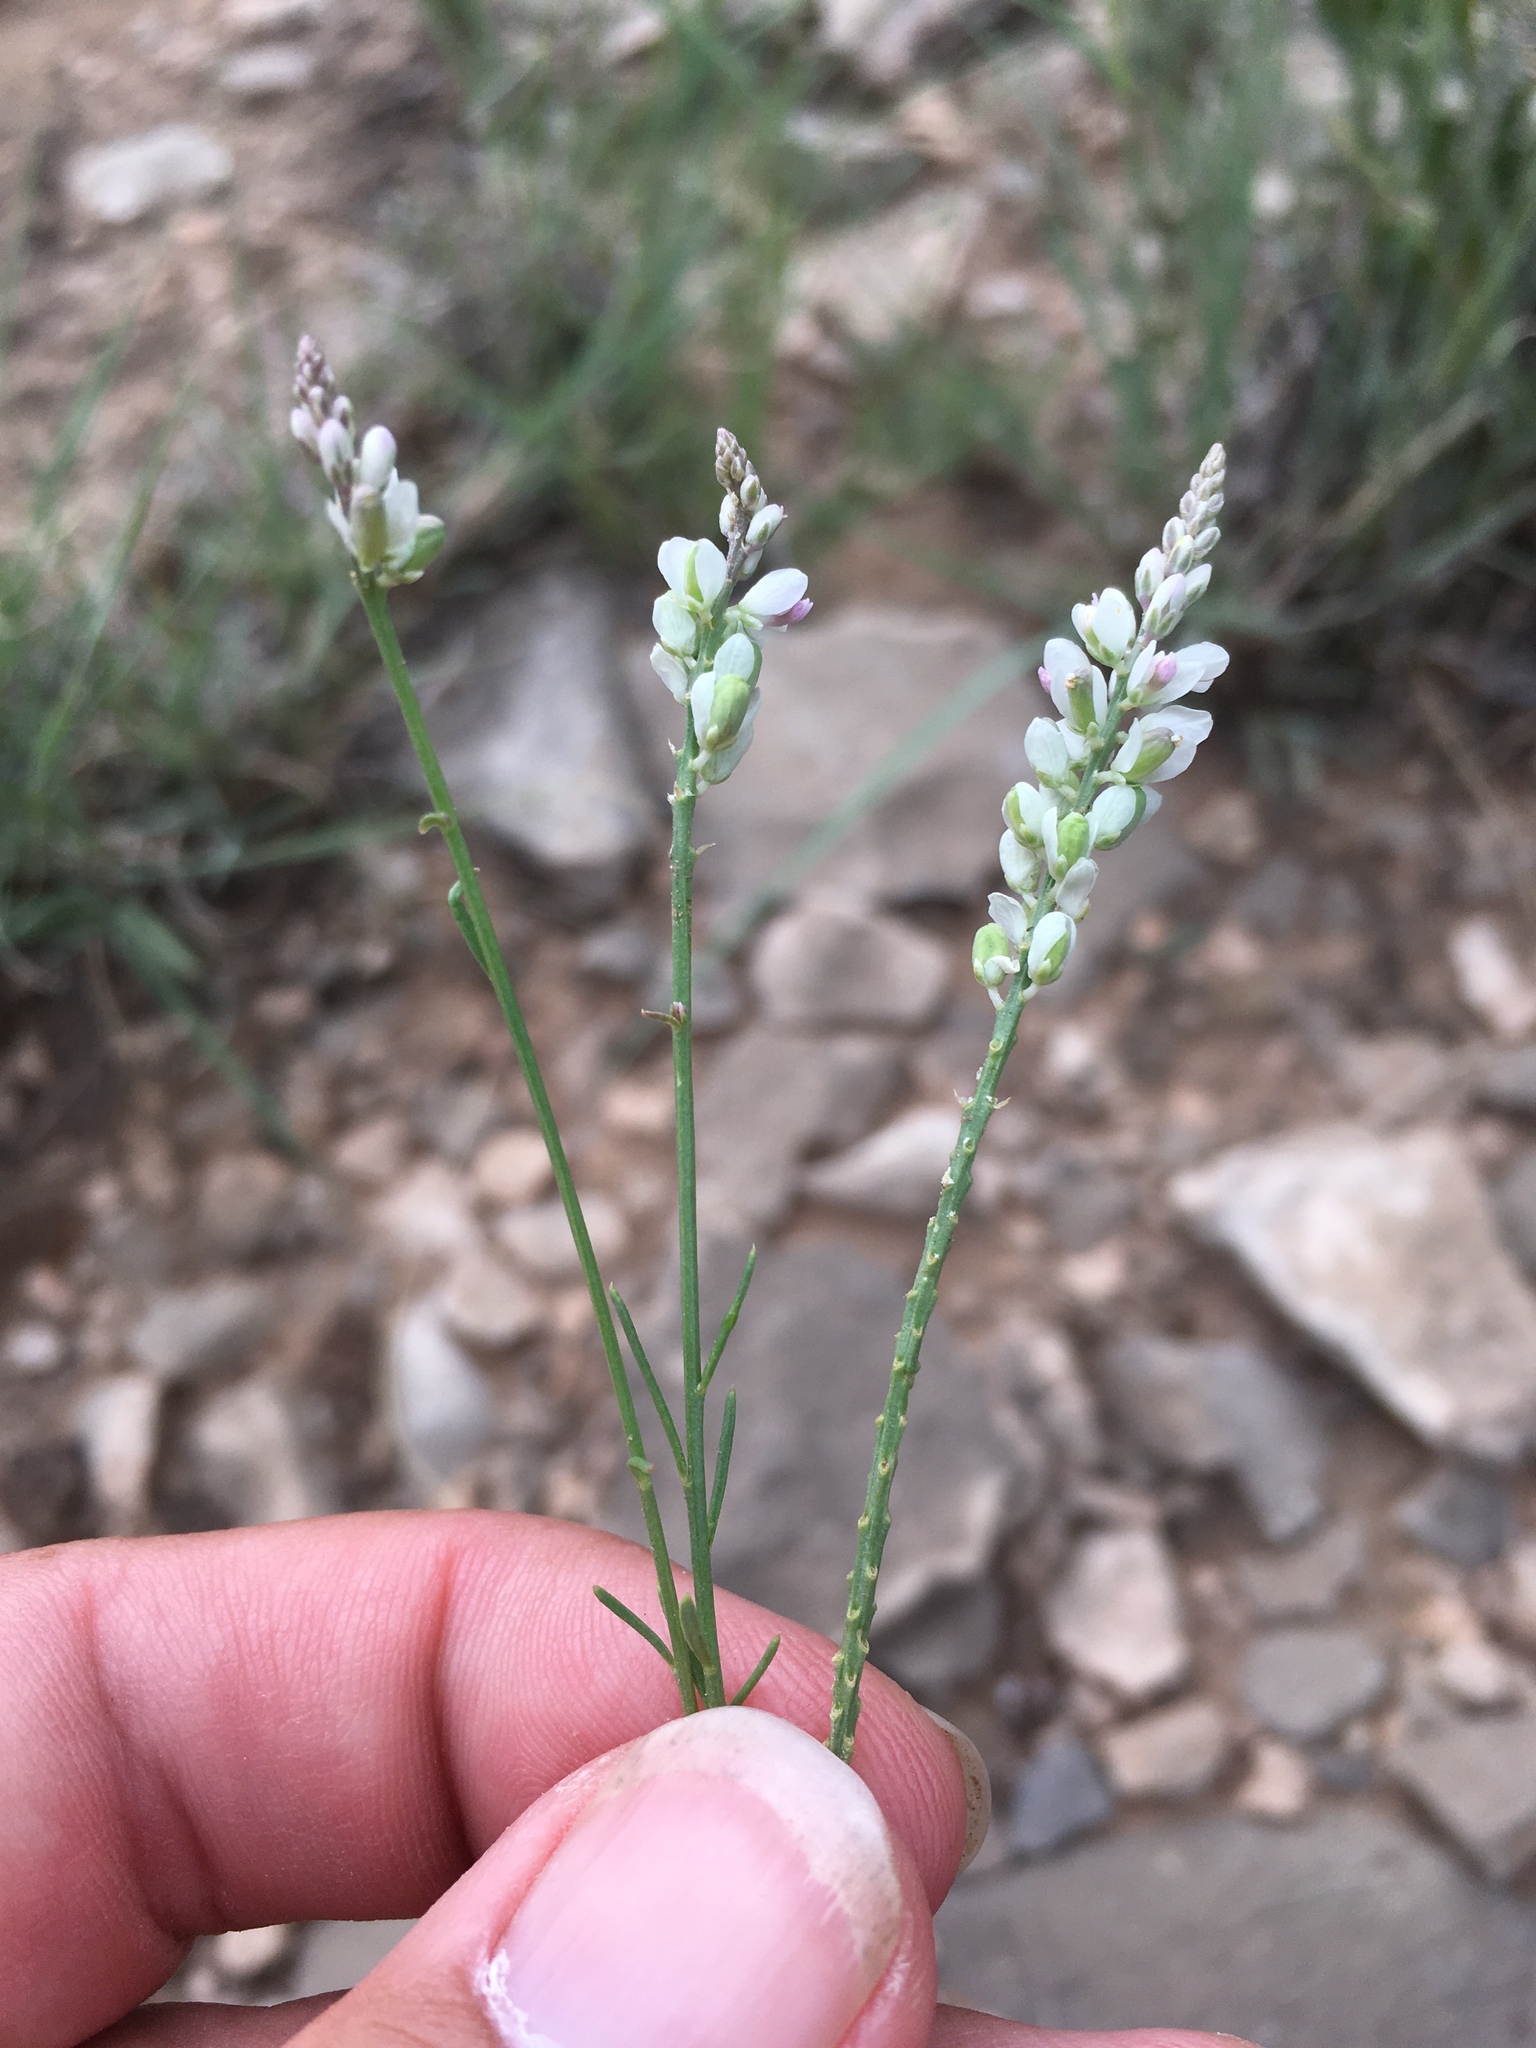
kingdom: Plantae
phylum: Tracheophyta
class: Magnoliopsida
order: Fabales
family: Polygalaceae
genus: Polygala
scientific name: Polygala alba
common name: White milkwort
